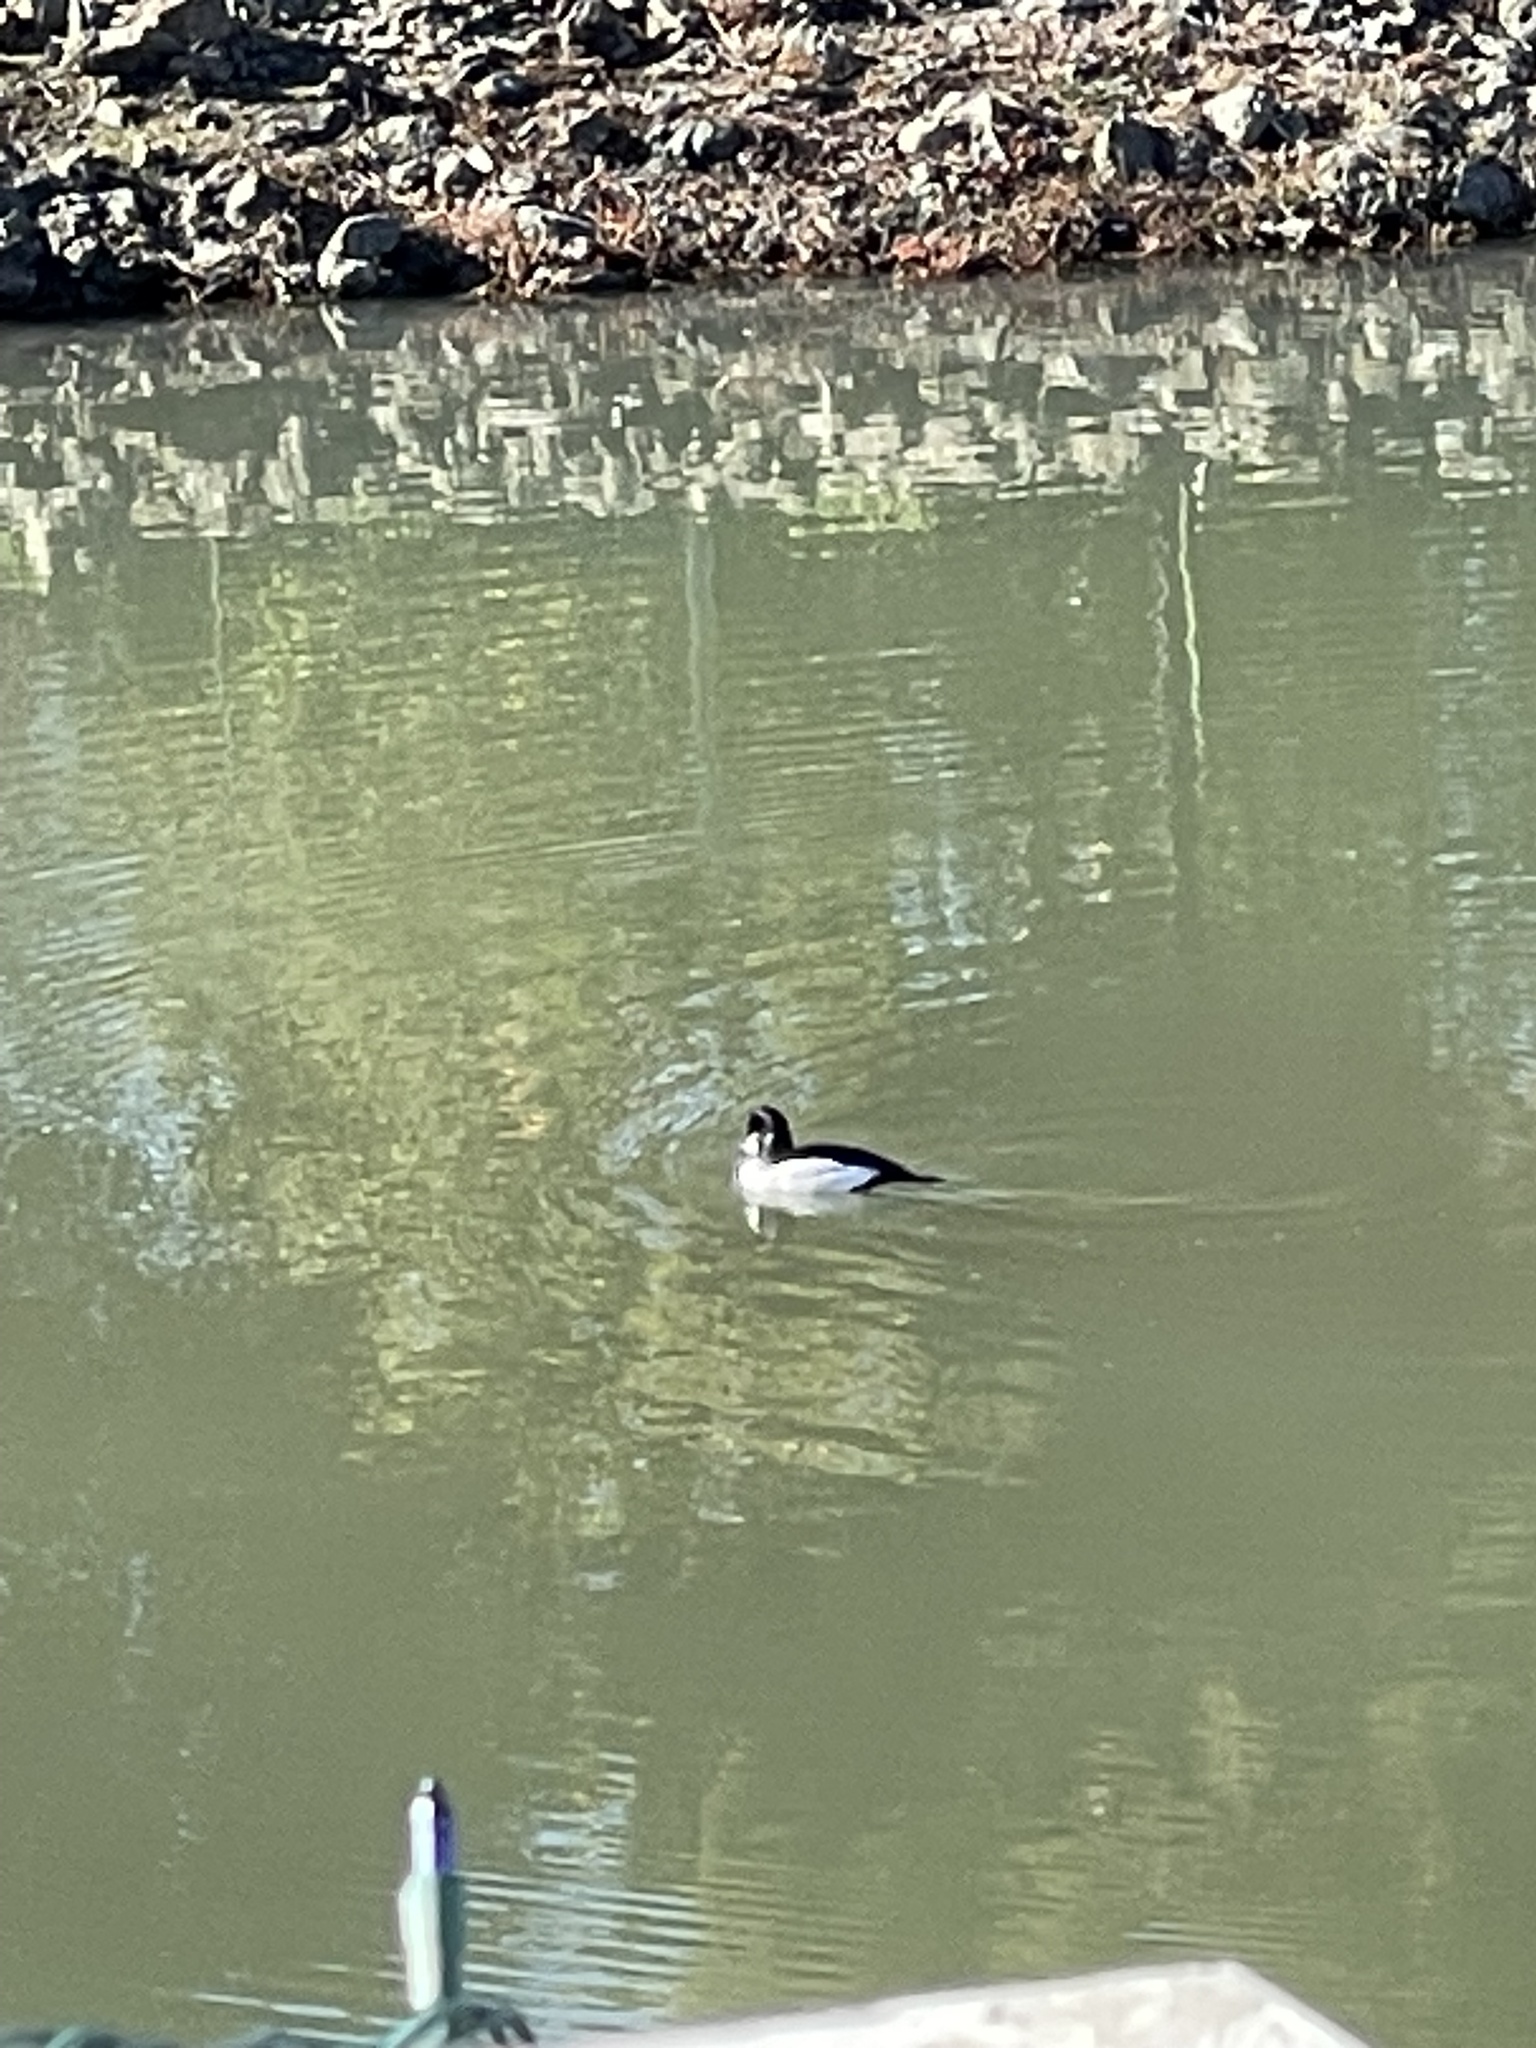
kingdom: Animalia
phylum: Chordata
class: Aves
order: Anseriformes
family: Anatidae
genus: Bucephala
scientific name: Bucephala clangula
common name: Common goldeneye
